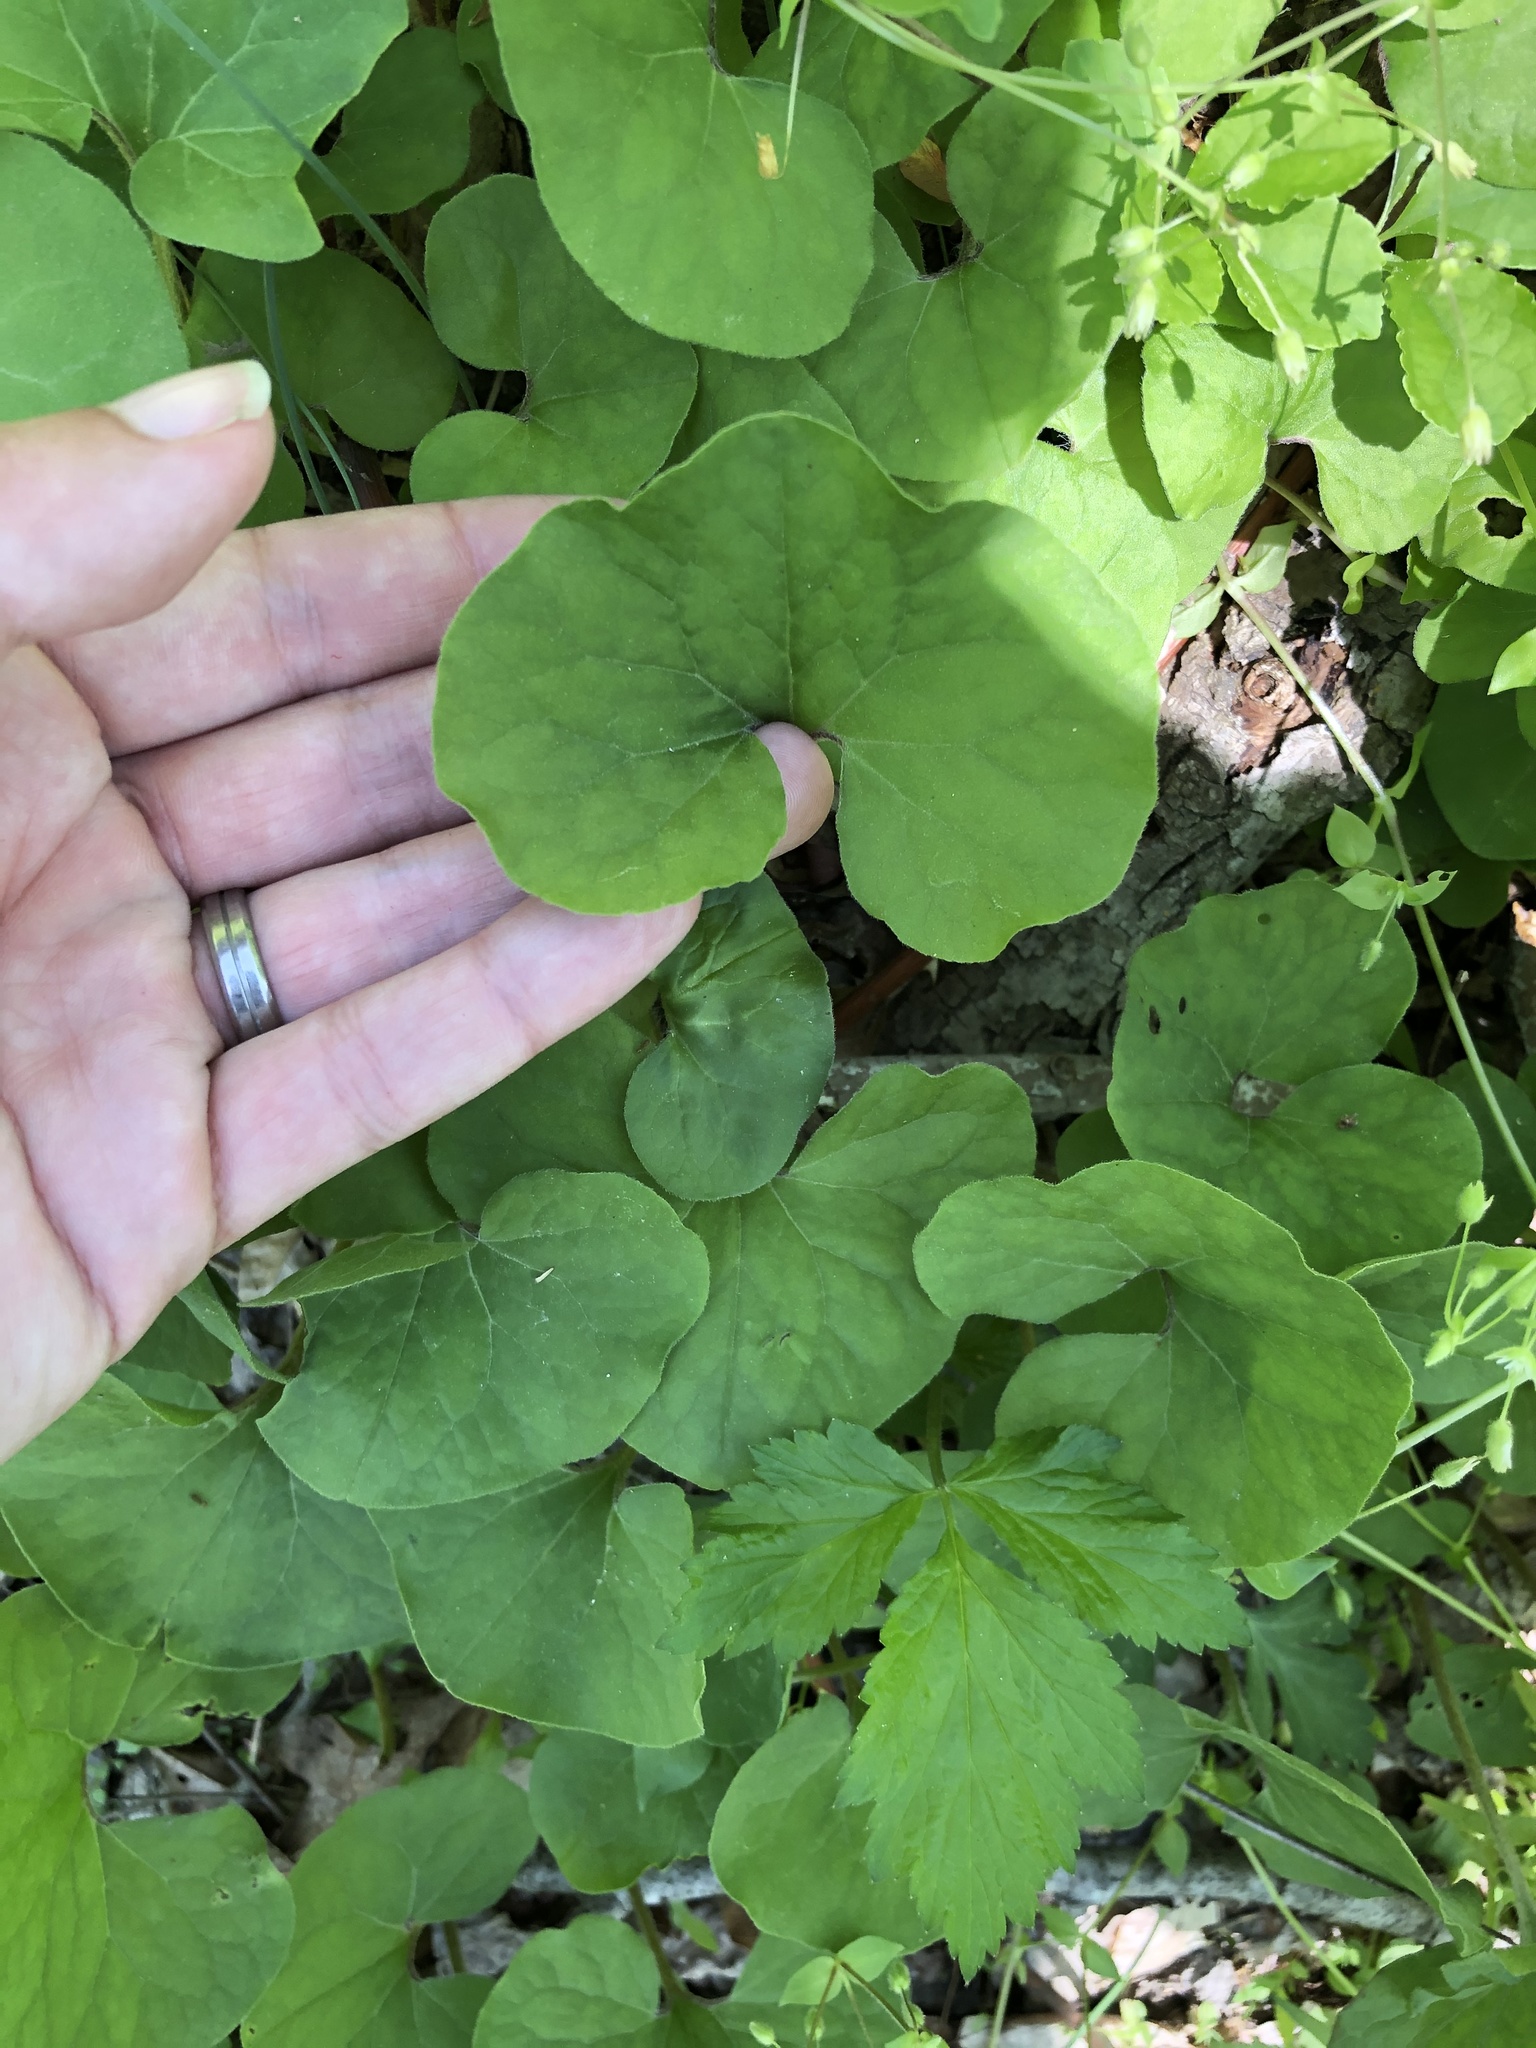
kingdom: Plantae
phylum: Tracheophyta
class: Magnoliopsida
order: Piperales
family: Aristolochiaceae
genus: Asarum
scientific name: Asarum canadense
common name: Wild ginger
